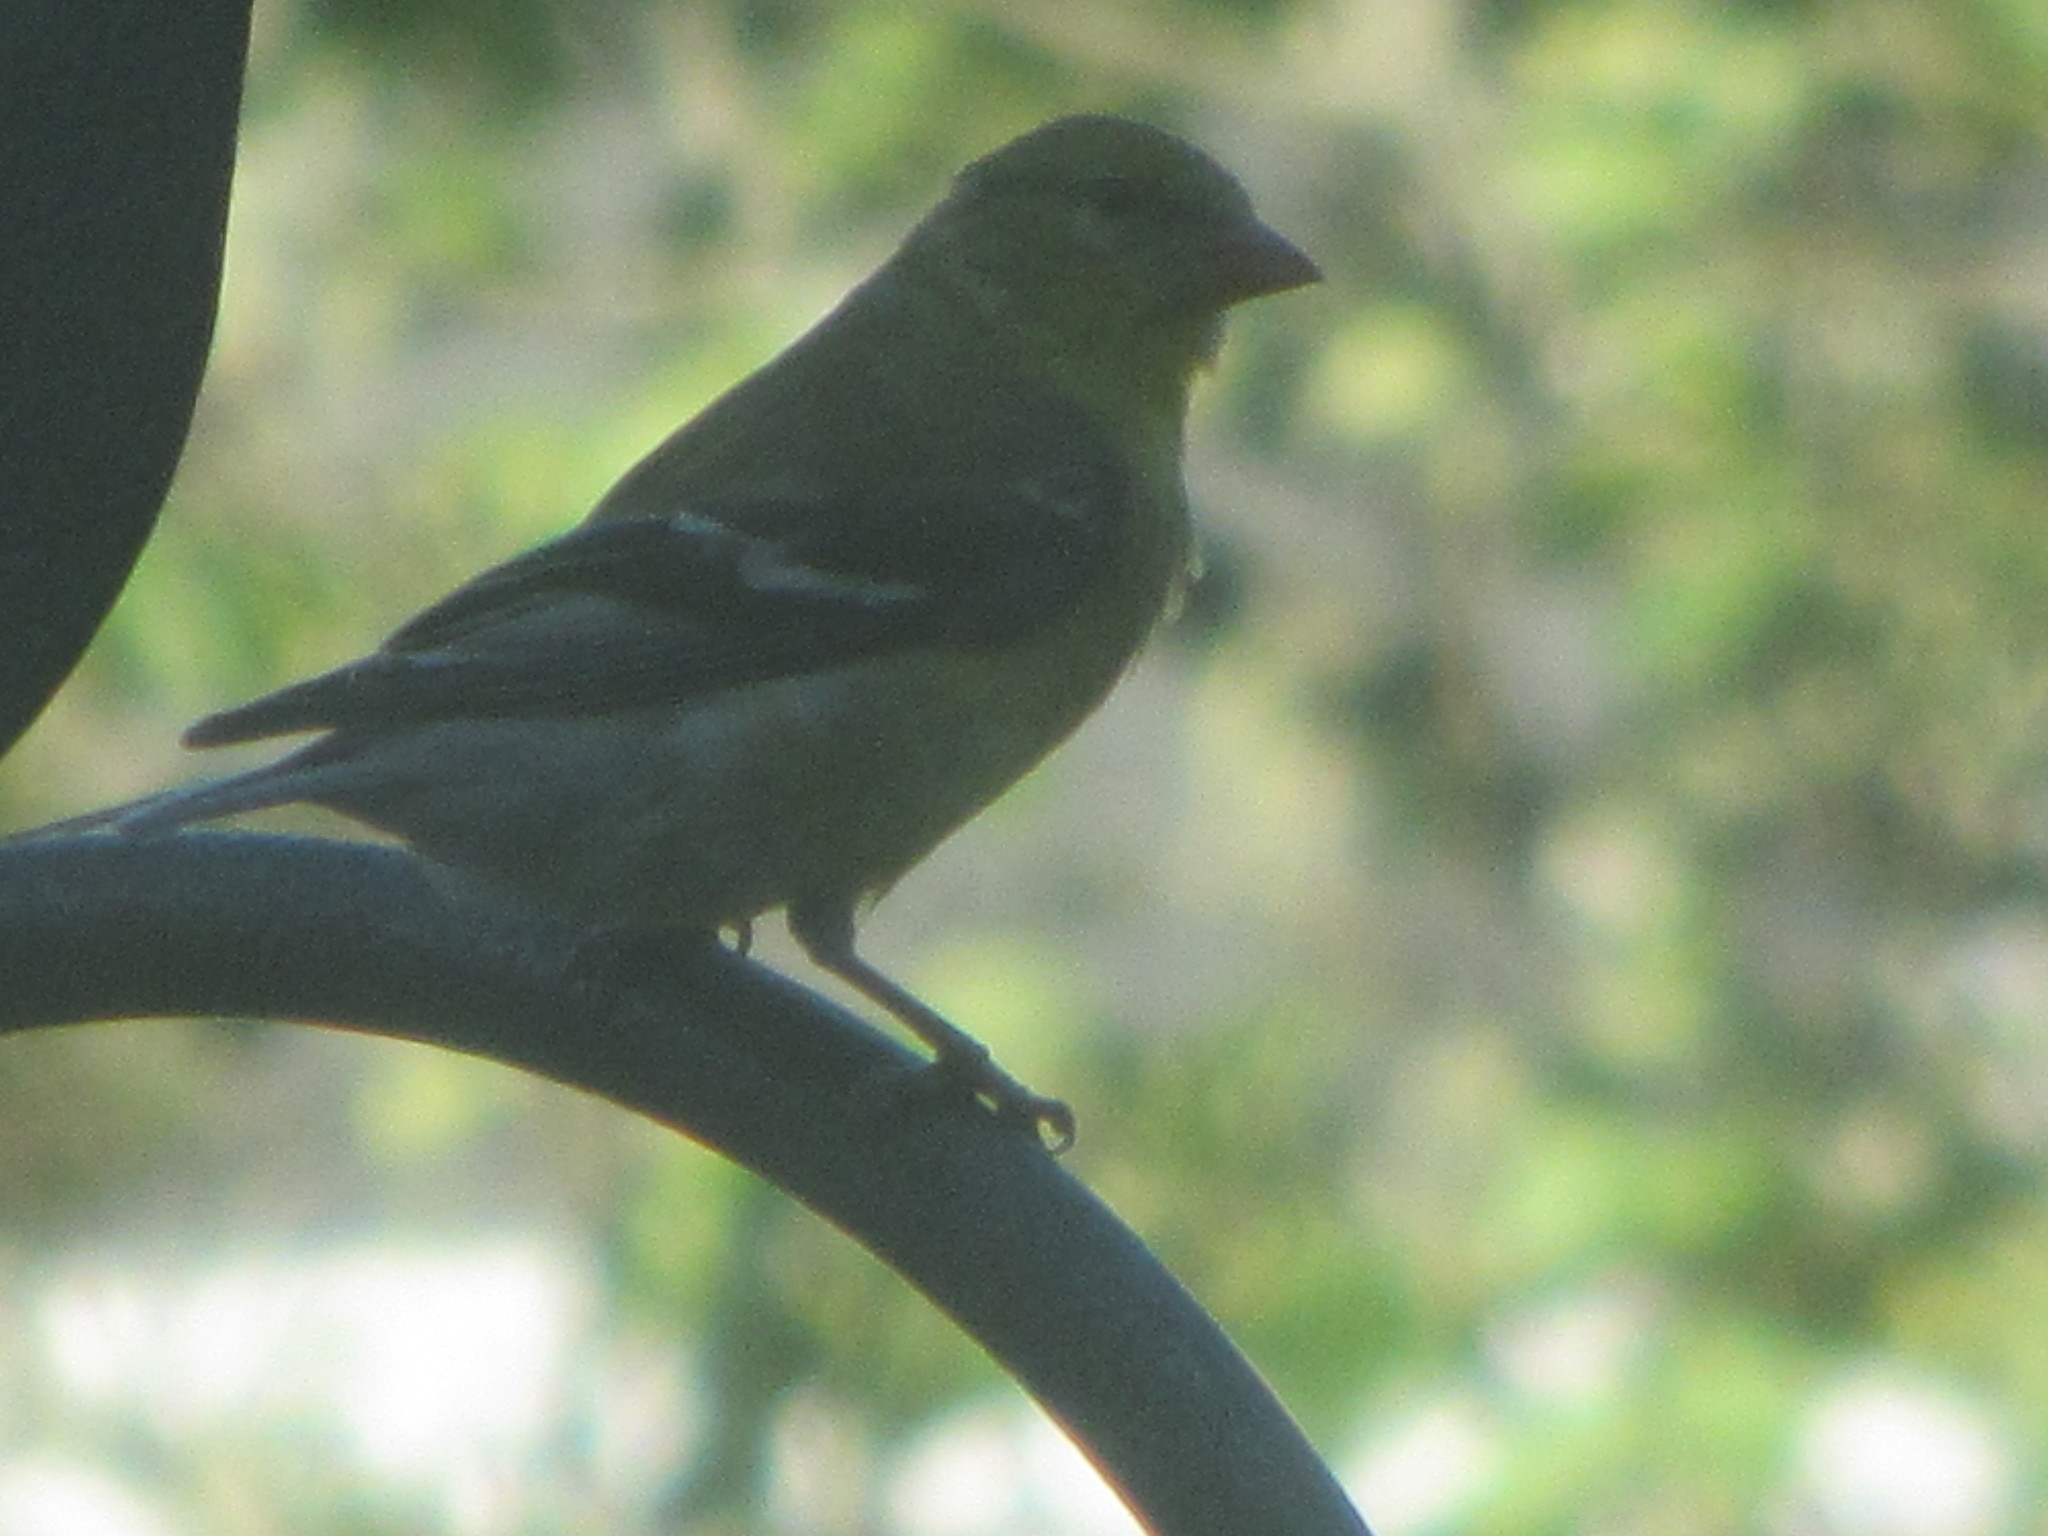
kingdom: Animalia
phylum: Chordata
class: Aves
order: Passeriformes
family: Fringillidae
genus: Spinus
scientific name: Spinus tristis
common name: American goldfinch
